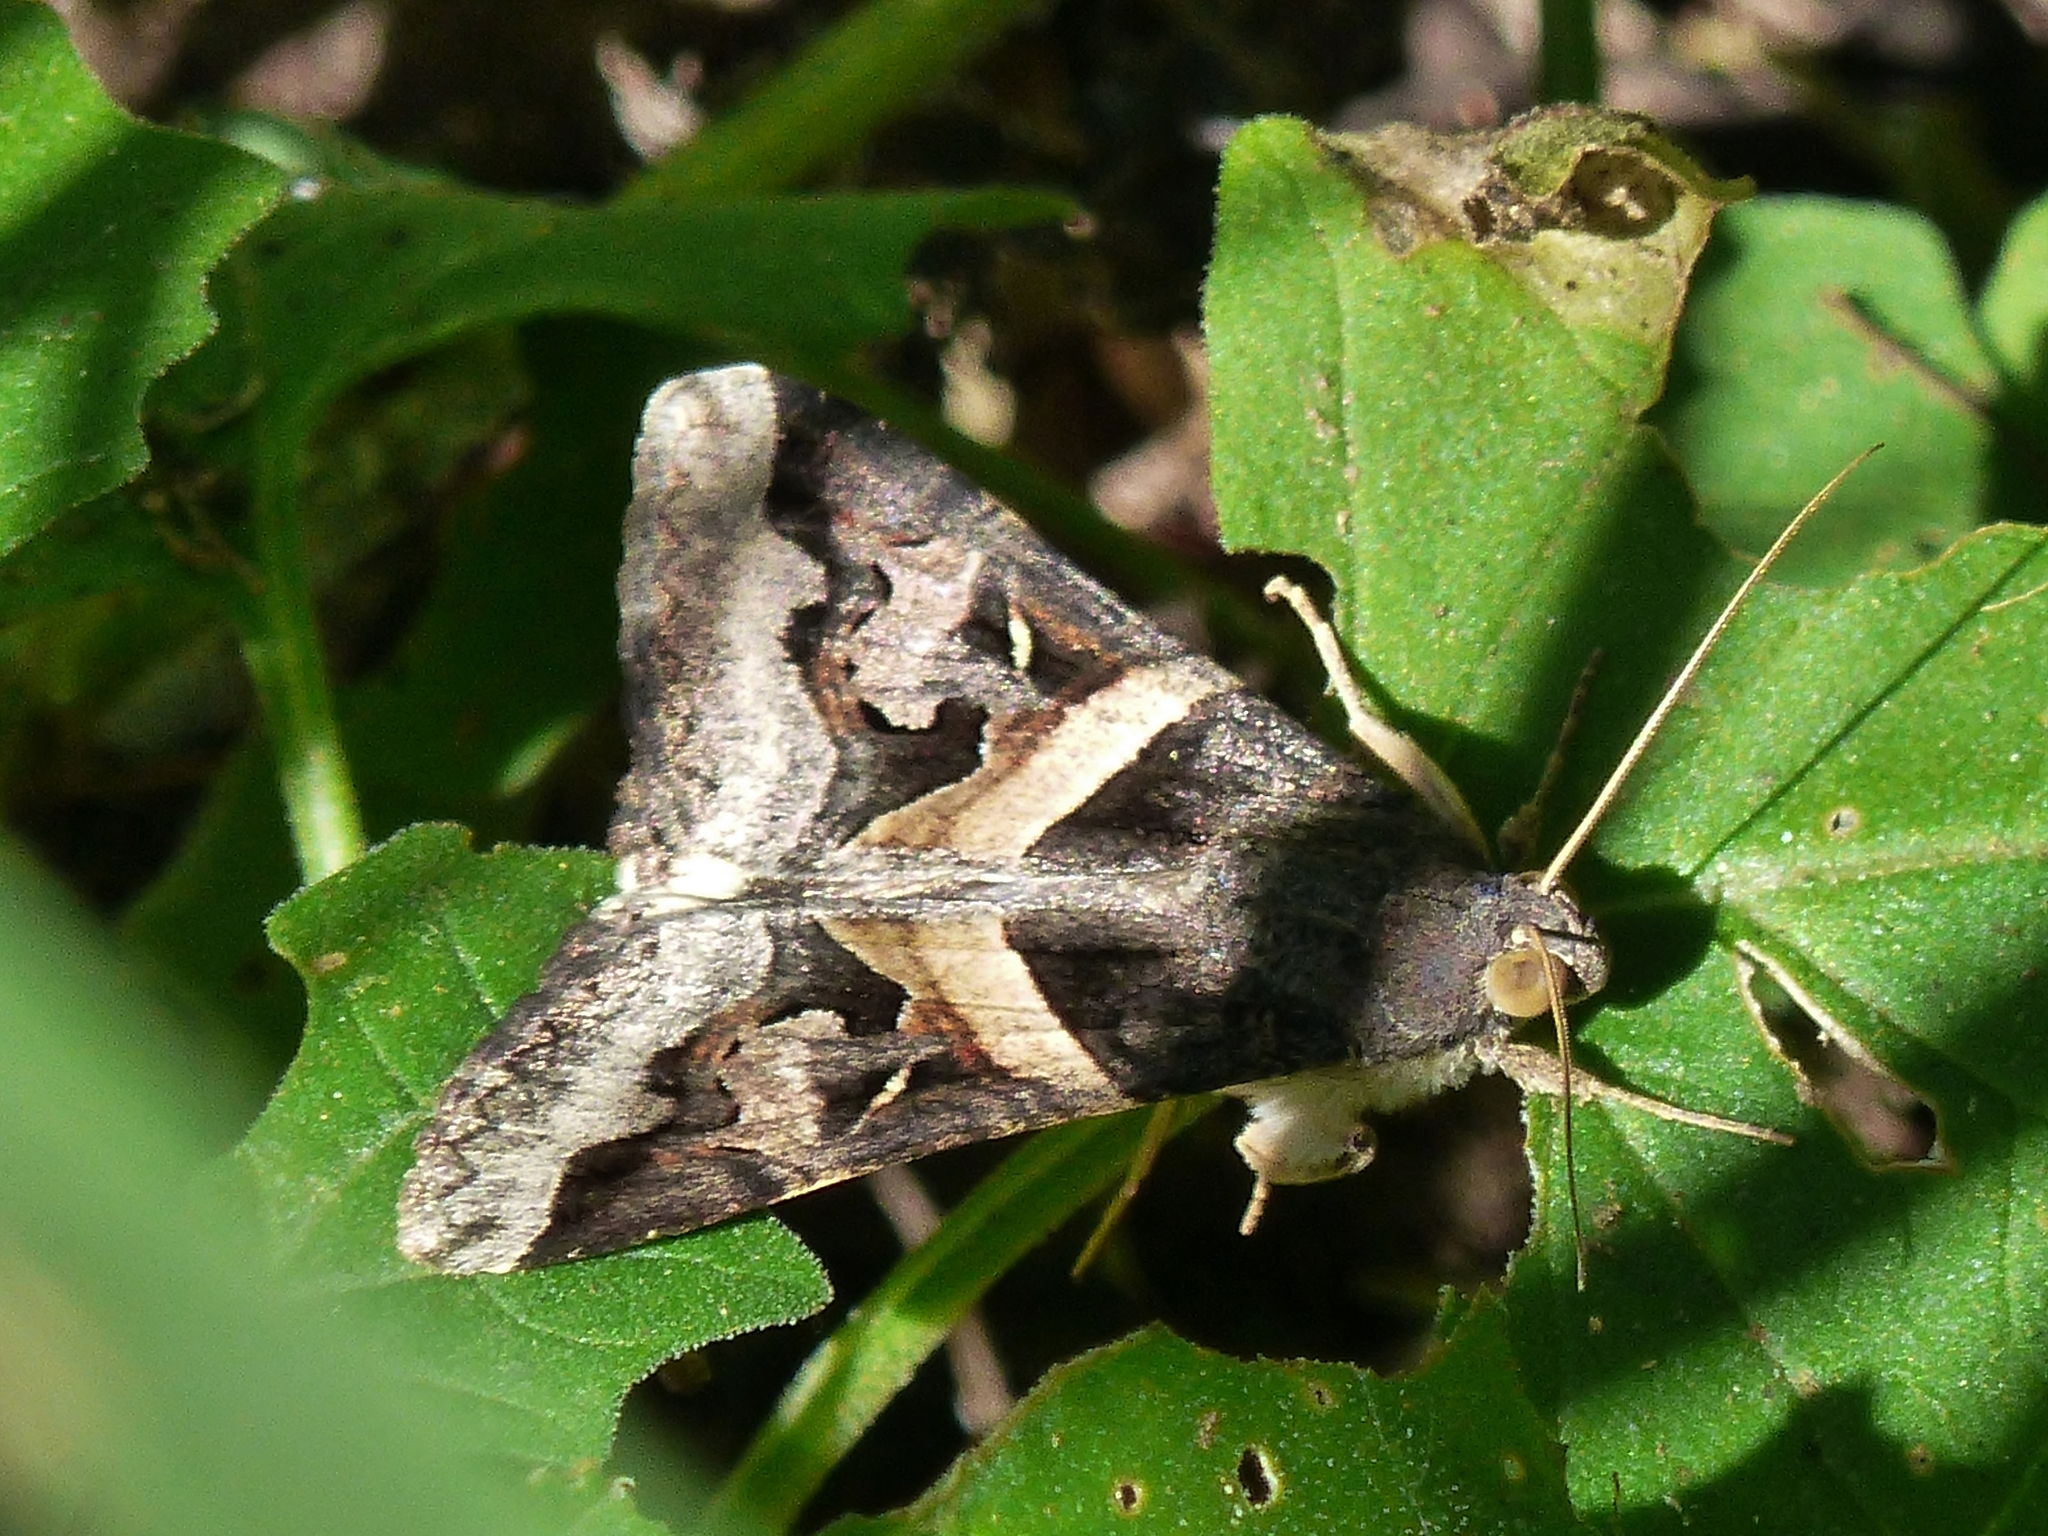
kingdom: Animalia
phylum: Arthropoda
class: Insecta
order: Lepidoptera
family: Erebidae
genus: Melipotis
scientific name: Melipotis indomita
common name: Moth
